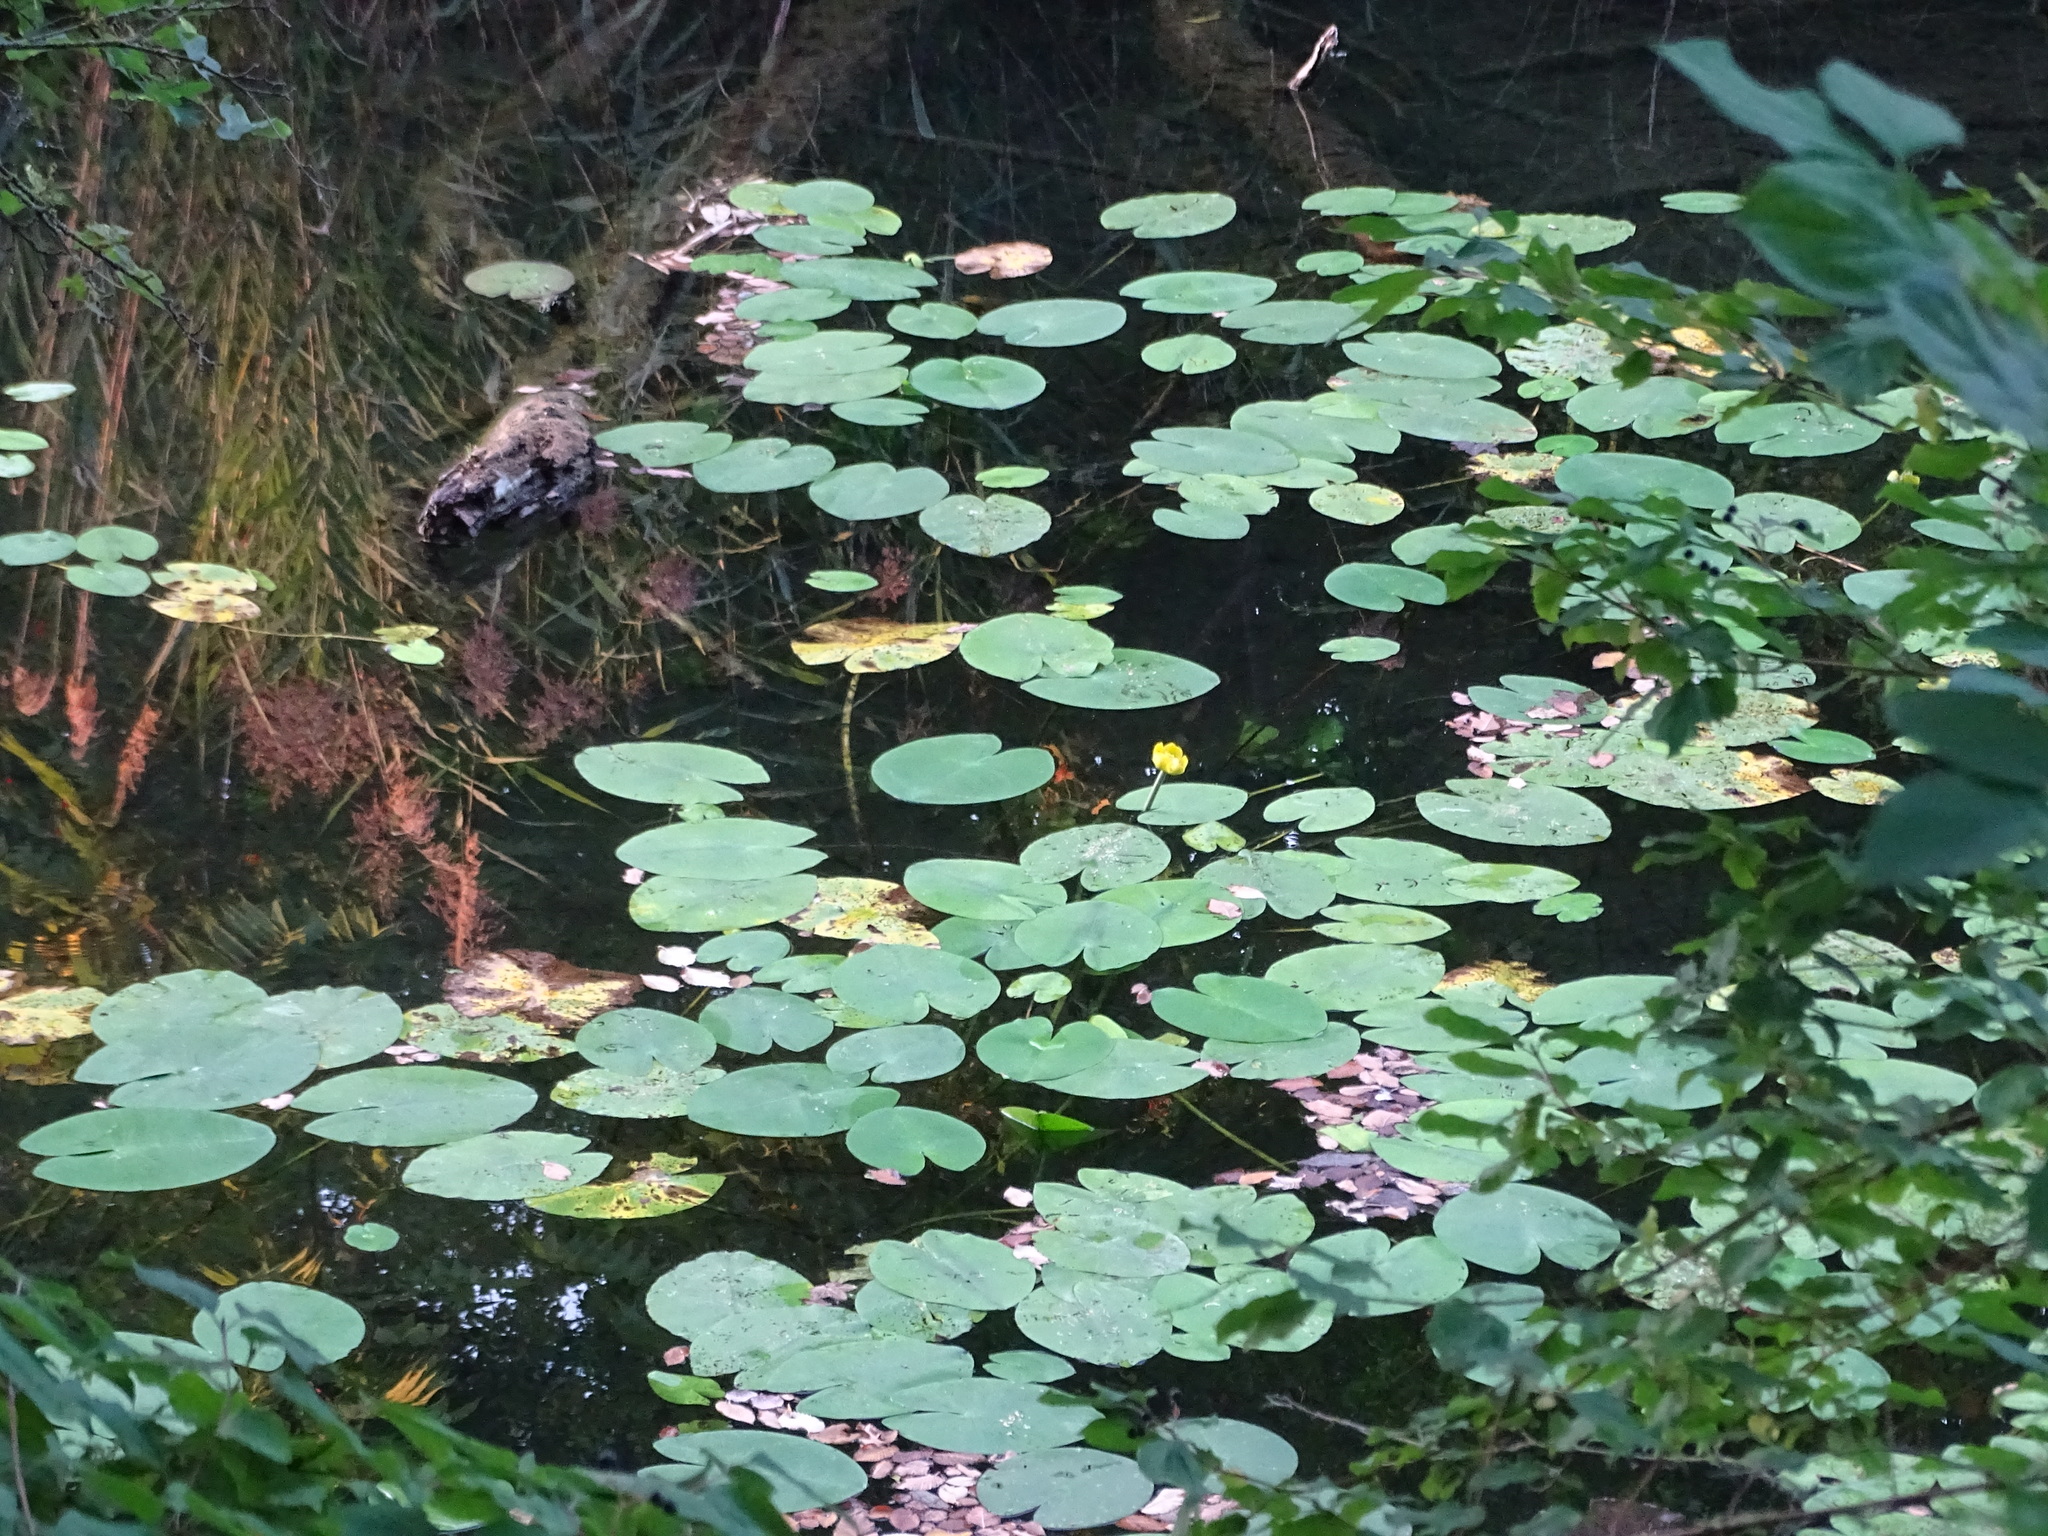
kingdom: Plantae
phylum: Tracheophyta
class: Magnoliopsida
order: Nymphaeales
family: Nymphaeaceae
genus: Nuphar
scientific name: Nuphar lutea
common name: Yellow water-lily
